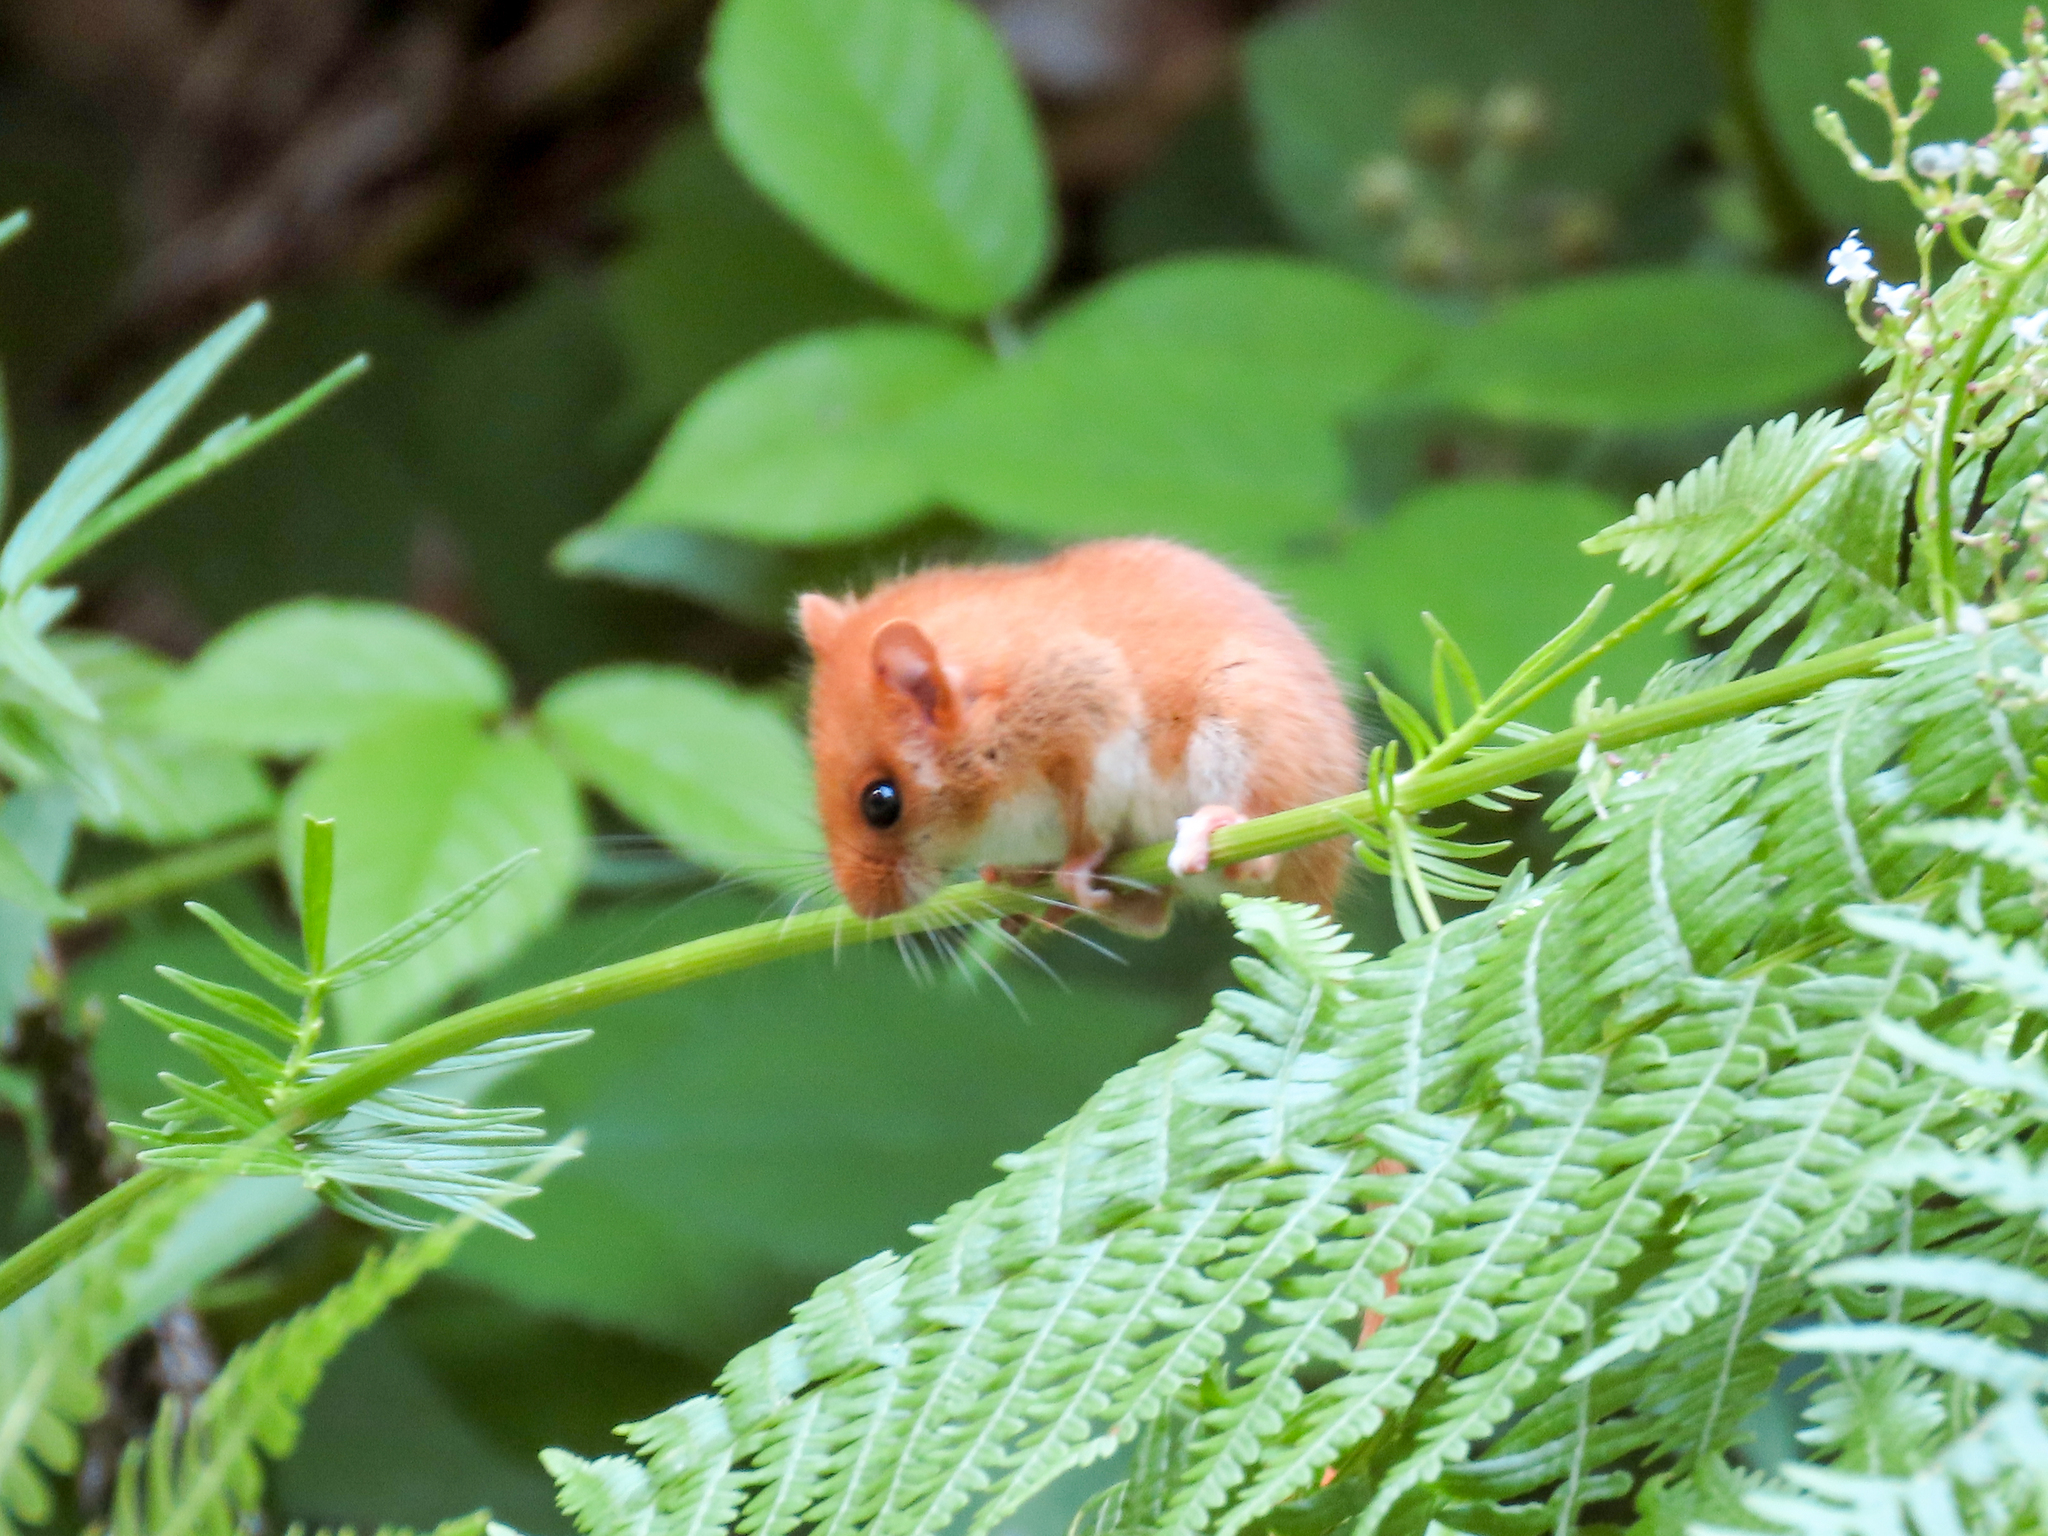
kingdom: Animalia
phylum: Chordata
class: Mammalia
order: Rodentia
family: Gliridae
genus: Muscardinus
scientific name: Muscardinus avellanarius
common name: Hazel dormouse
